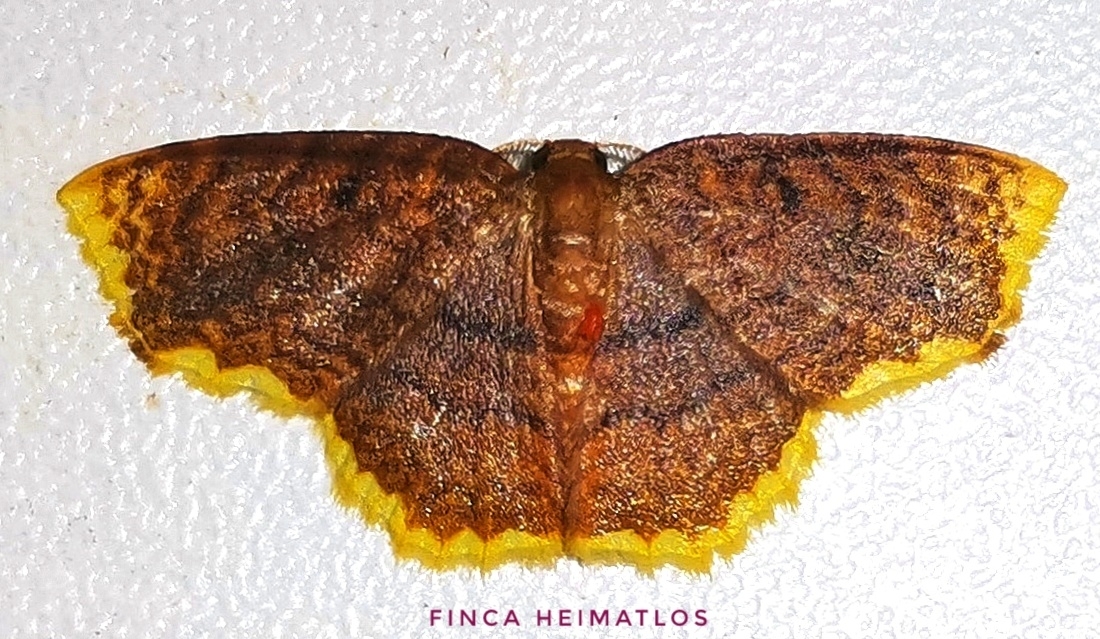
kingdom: Animalia
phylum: Arthropoda
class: Insecta
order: Lepidoptera
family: Geometridae
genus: Eois
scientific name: Eois serrilineata
